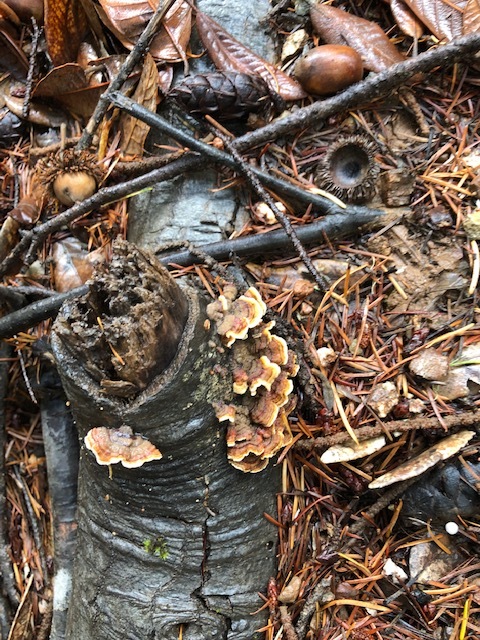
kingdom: Fungi
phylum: Basidiomycota
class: Agaricomycetes
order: Russulales
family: Stereaceae
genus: Stereum
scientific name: Stereum hirsutum
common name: Hairy curtain crust
